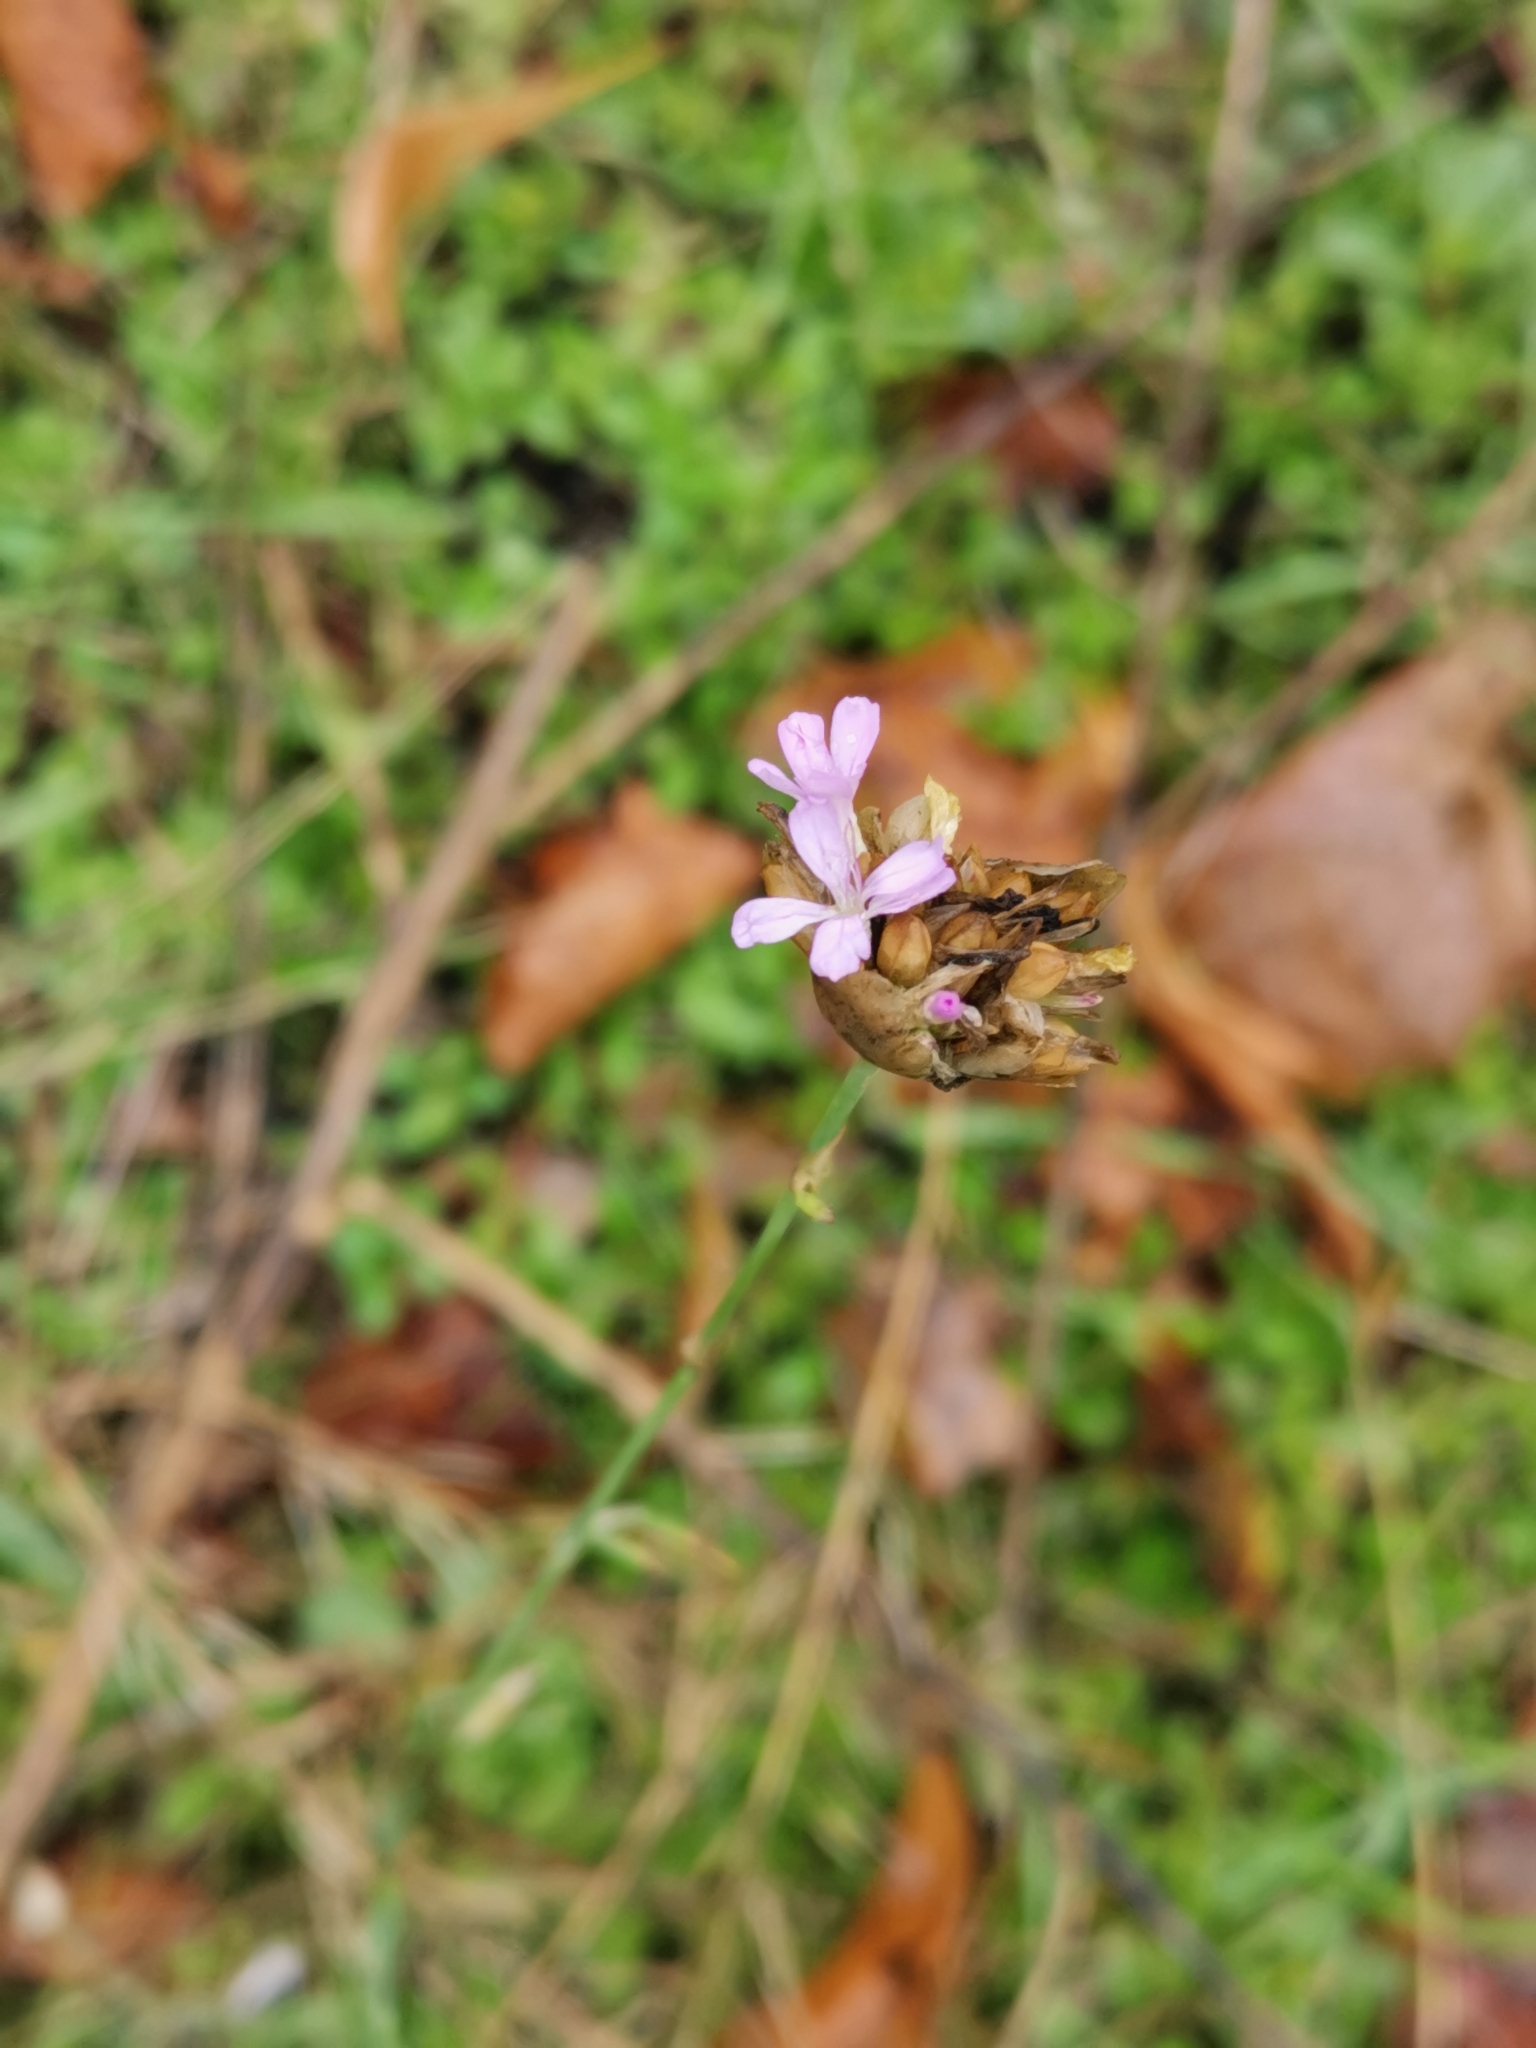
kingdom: Plantae
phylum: Tracheophyta
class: Magnoliopsida
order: Caryophyllales
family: Caryophyllaceae
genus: Petrorhagia
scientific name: Petrorhagia prolifera
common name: Proliferous pink
